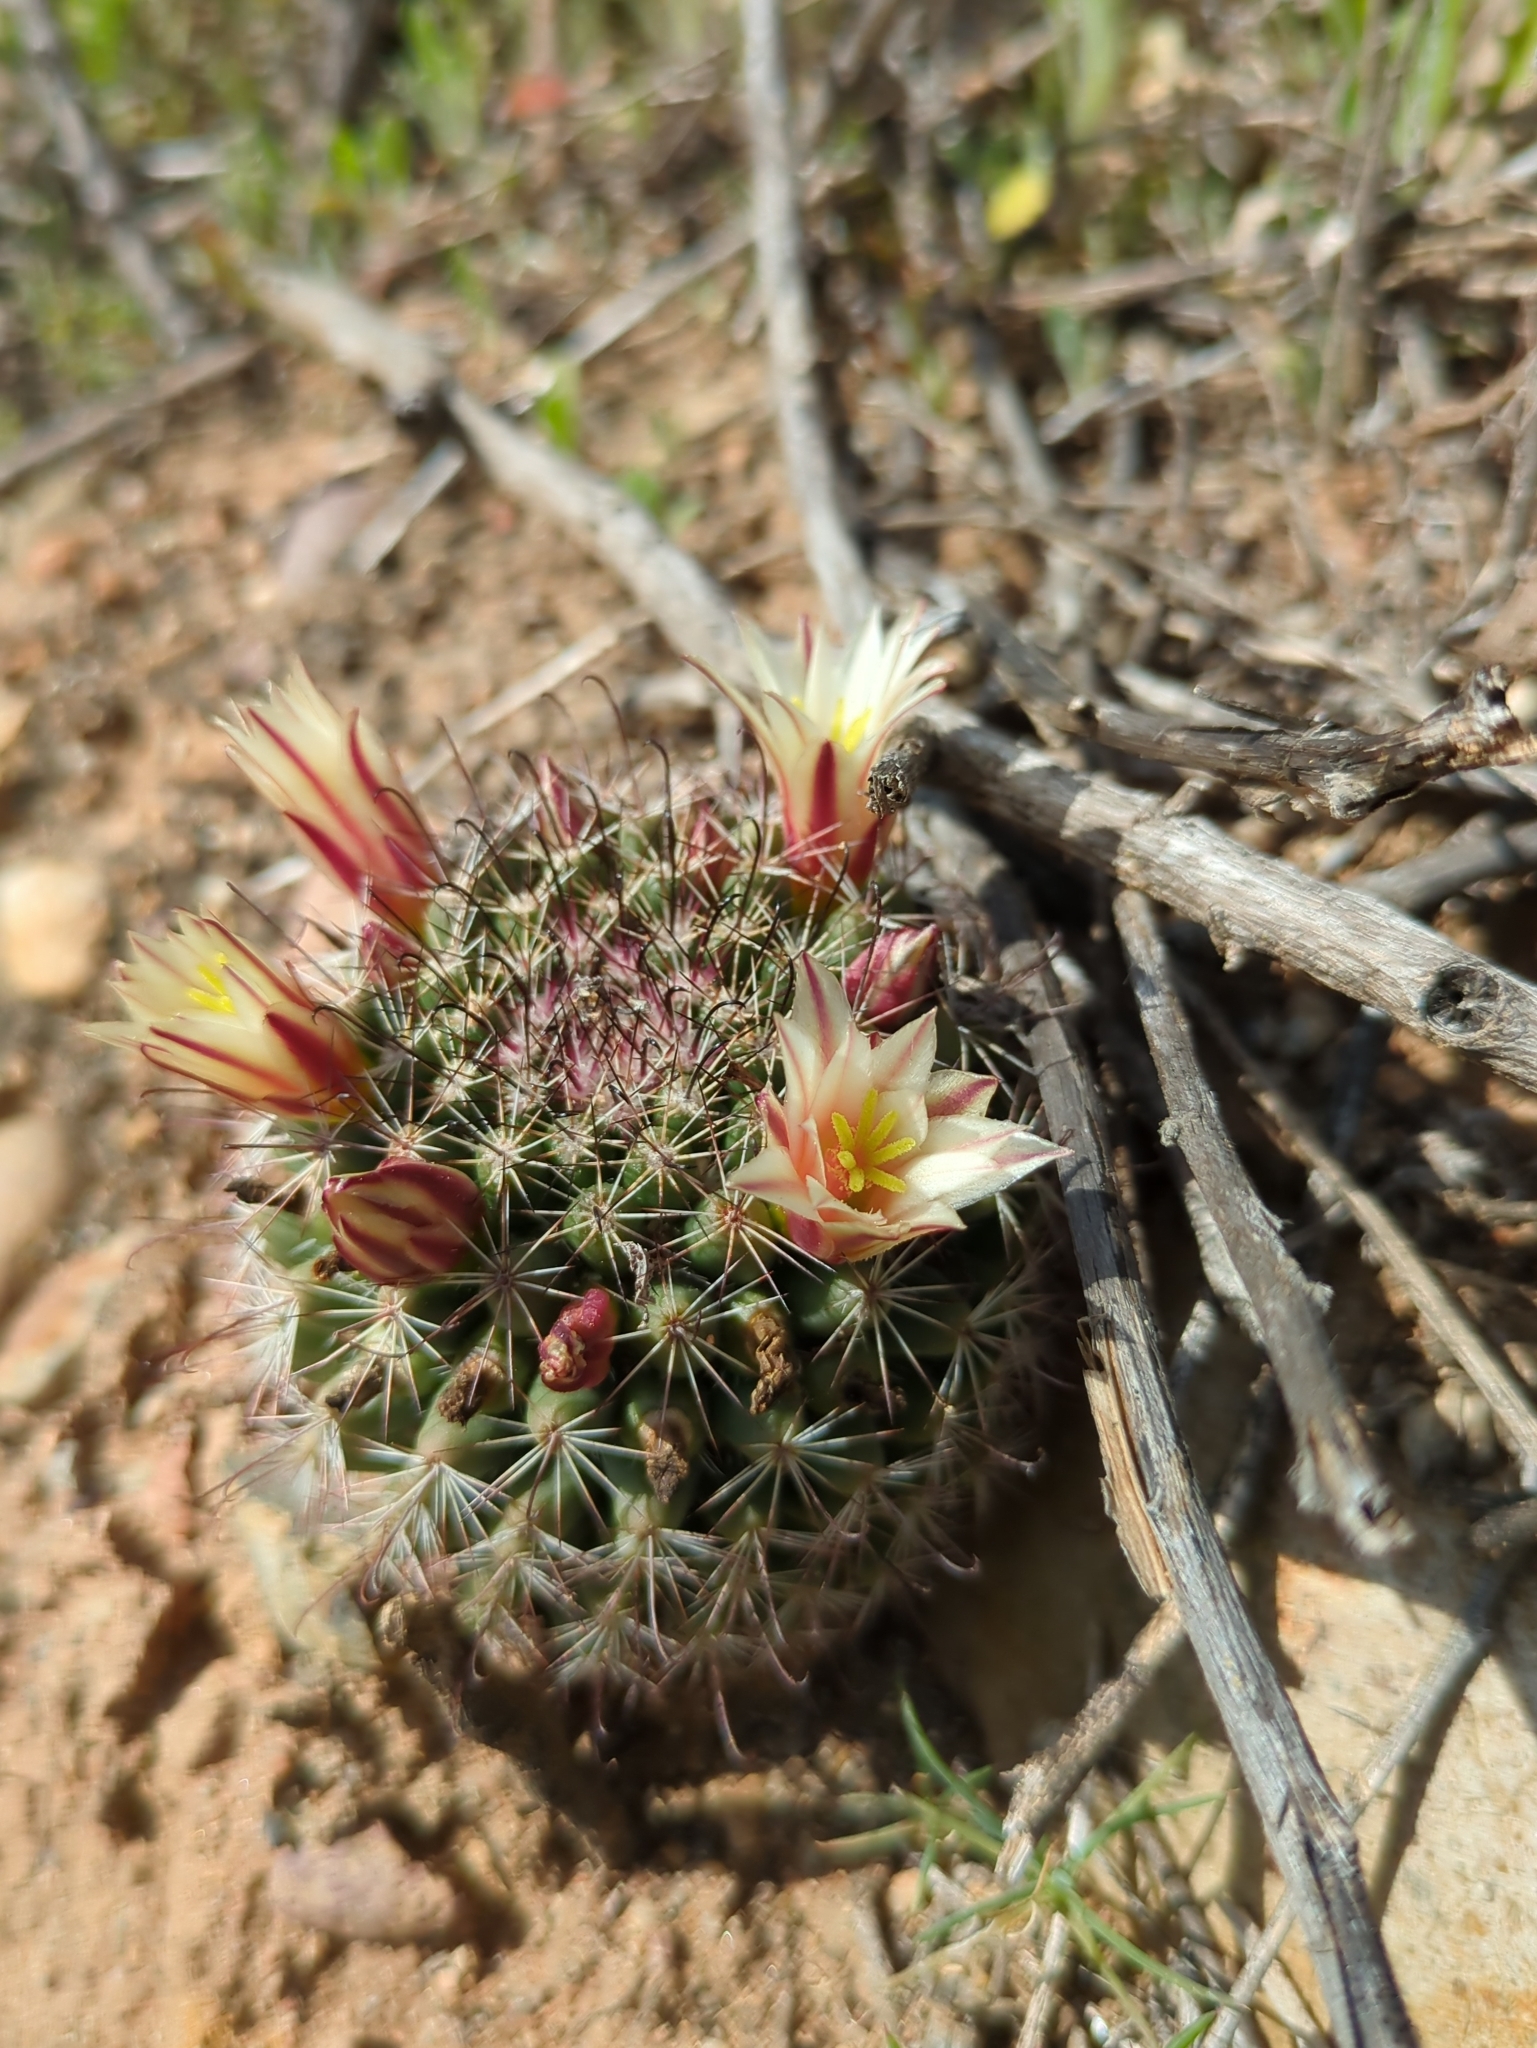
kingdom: Plantae
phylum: Tracheophyta
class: Magnoliopsida
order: Caryophyllales
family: Cactaceae
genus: Cochemiea
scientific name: Cochemiea dioica
